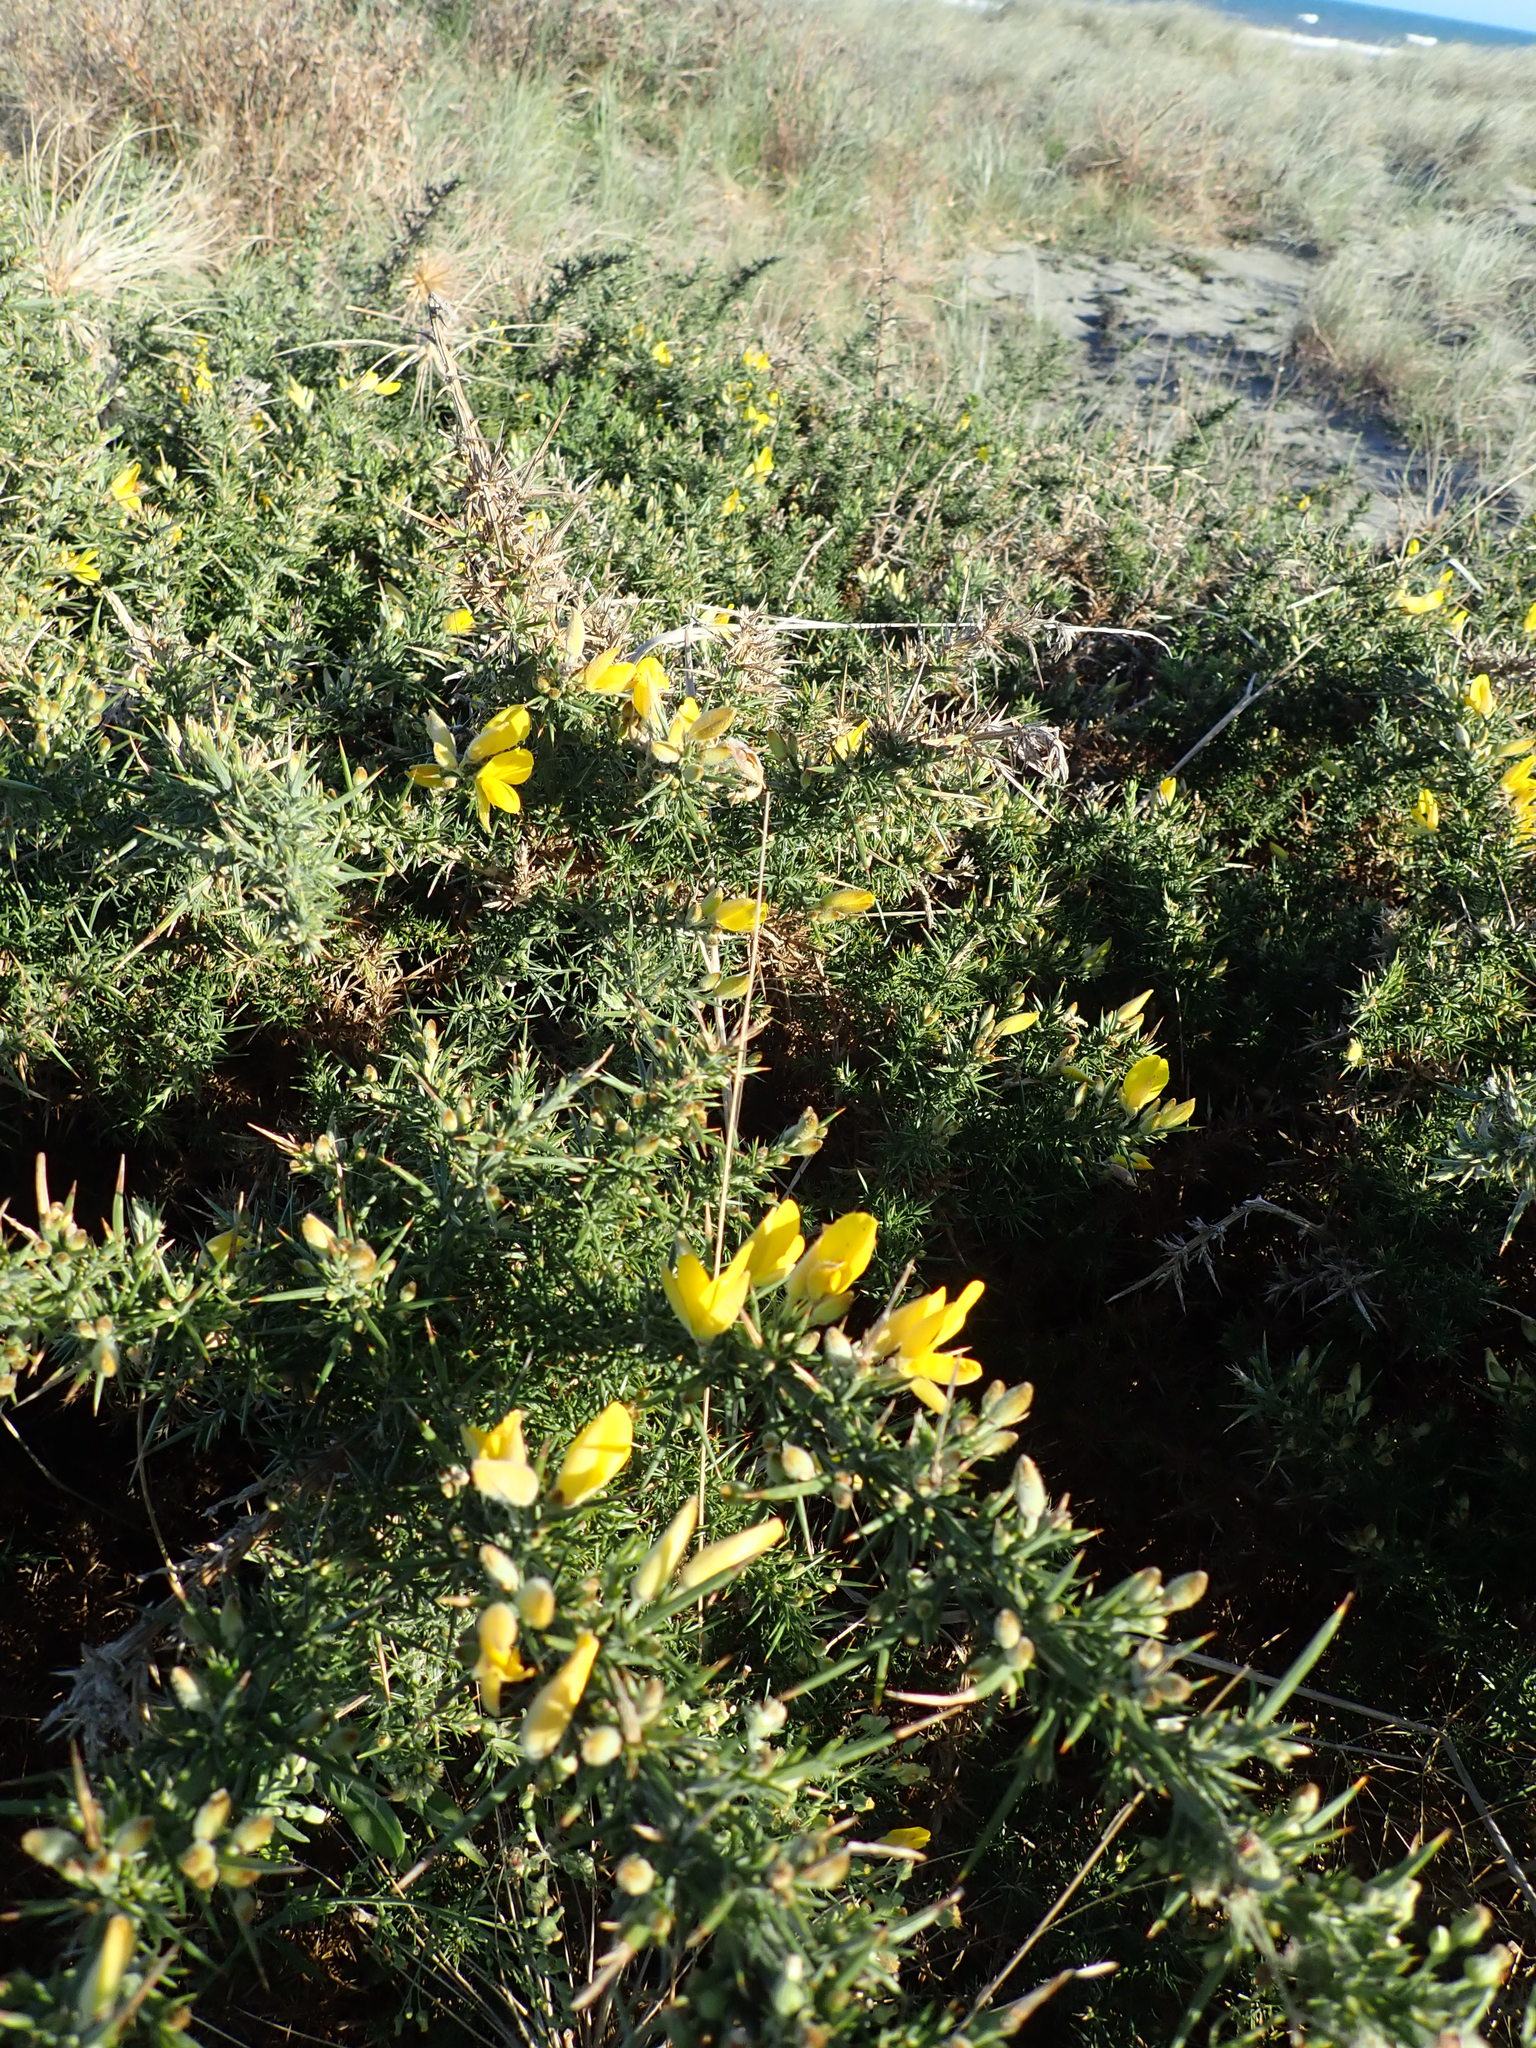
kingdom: Plantae
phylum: Tracheophyta
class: Magnoliopsida
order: Fabales
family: Fabaceae
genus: Ulex
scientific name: Ulex europaeus
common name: Common gorse
